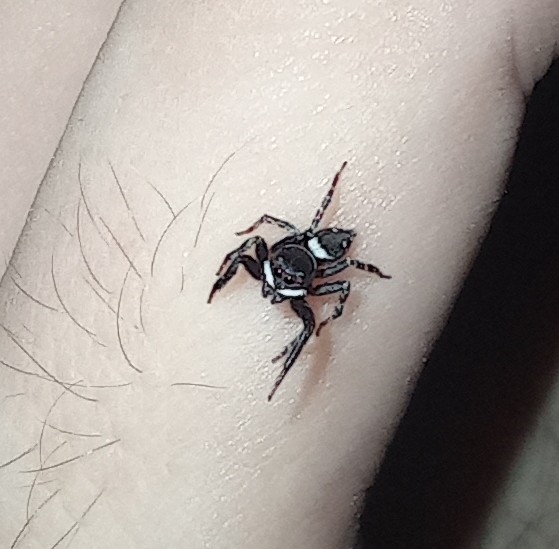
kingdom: Animalia
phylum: Arthropoda
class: Arachnida
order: Araneae
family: Salticidae
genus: Hasarius
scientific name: Hasarius adansoni
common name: Jumping spider
